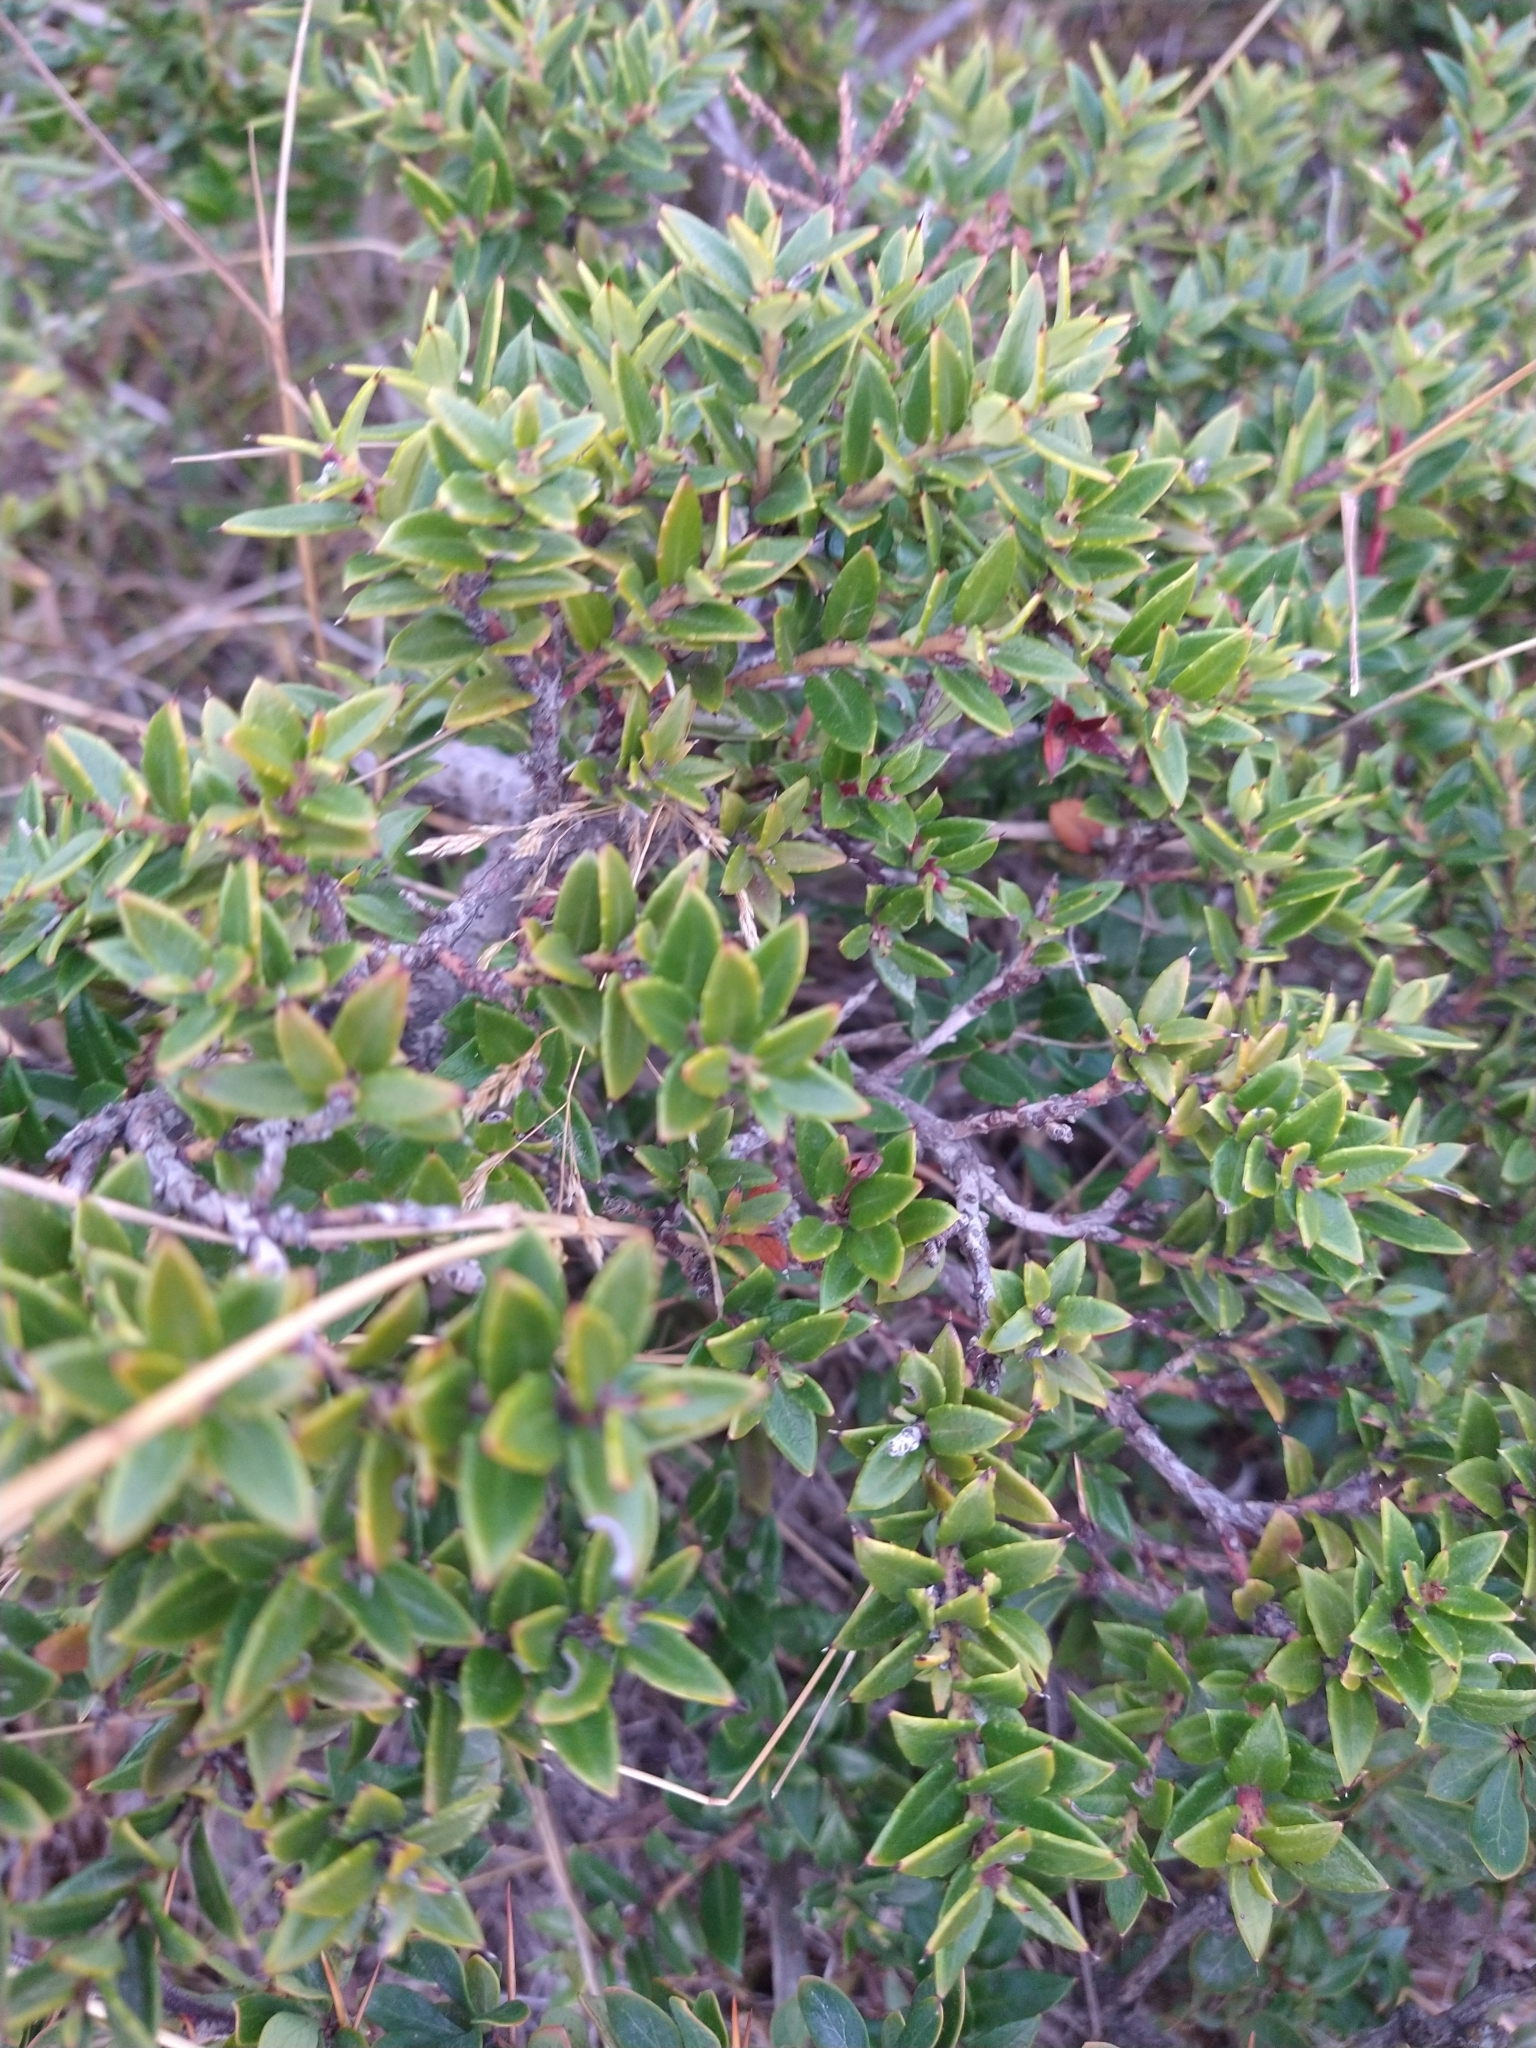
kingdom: Plantae
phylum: Tracheophyta
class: Magnoliopsida
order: Ericales
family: Ericaceae
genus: Gaultheria
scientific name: Gaultheria mucronata
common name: Prickly heath
